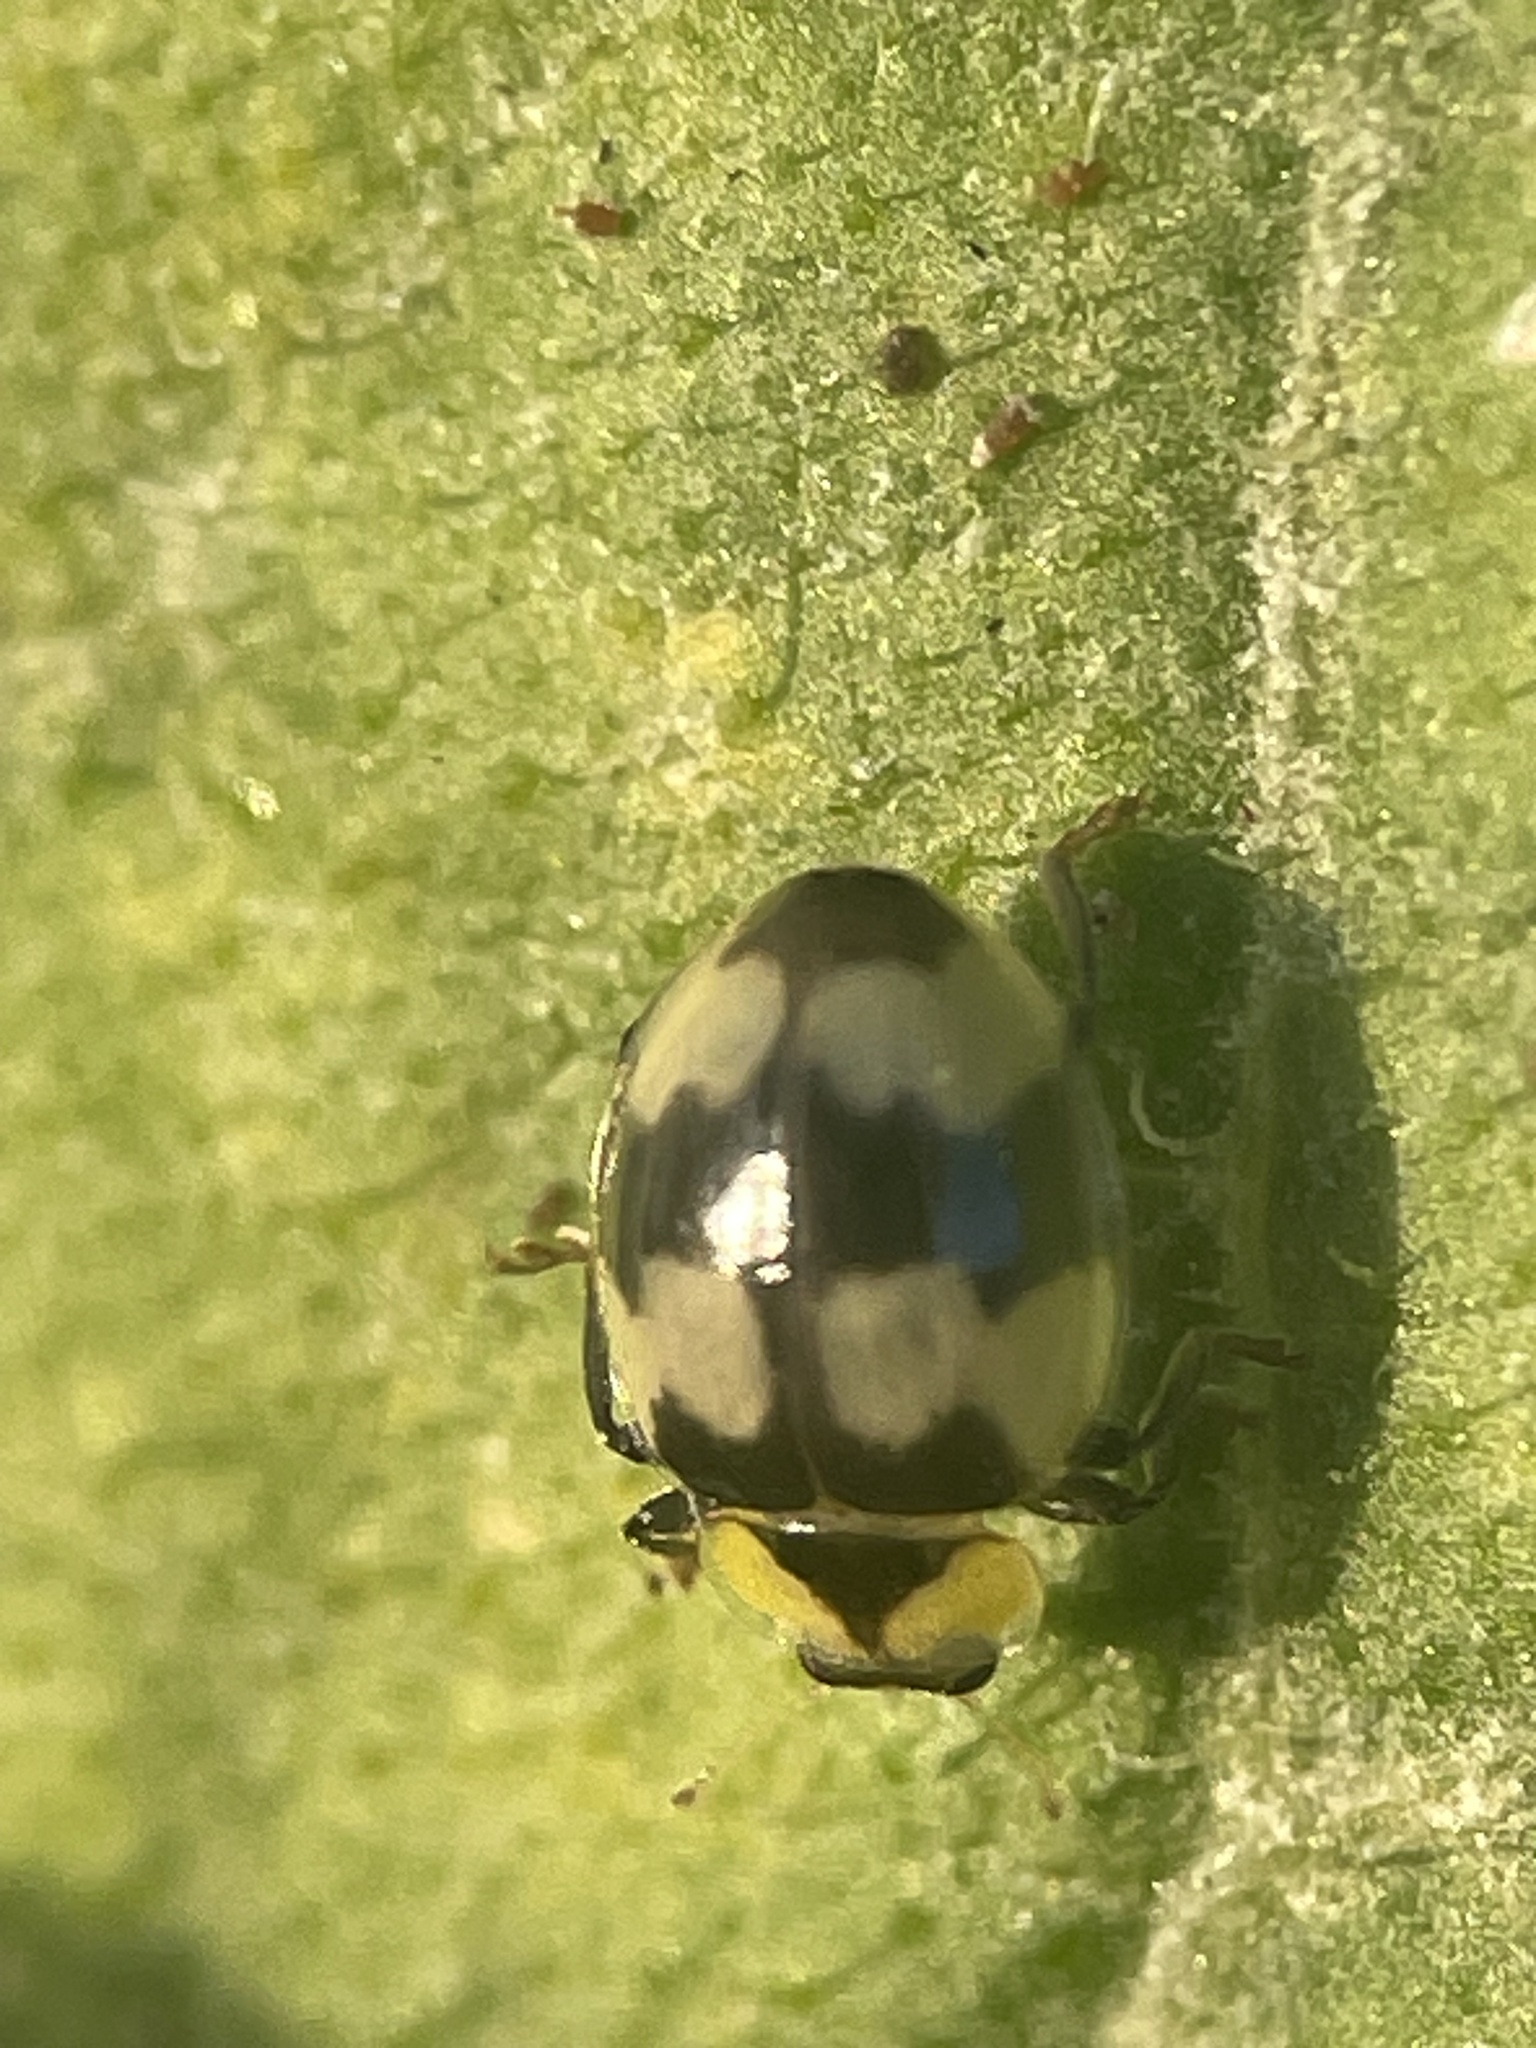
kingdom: Animalia
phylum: Arthropoda
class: Insecta
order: Coleoptera
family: Coccinellidae
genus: Illeis
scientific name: Illeis galbula
